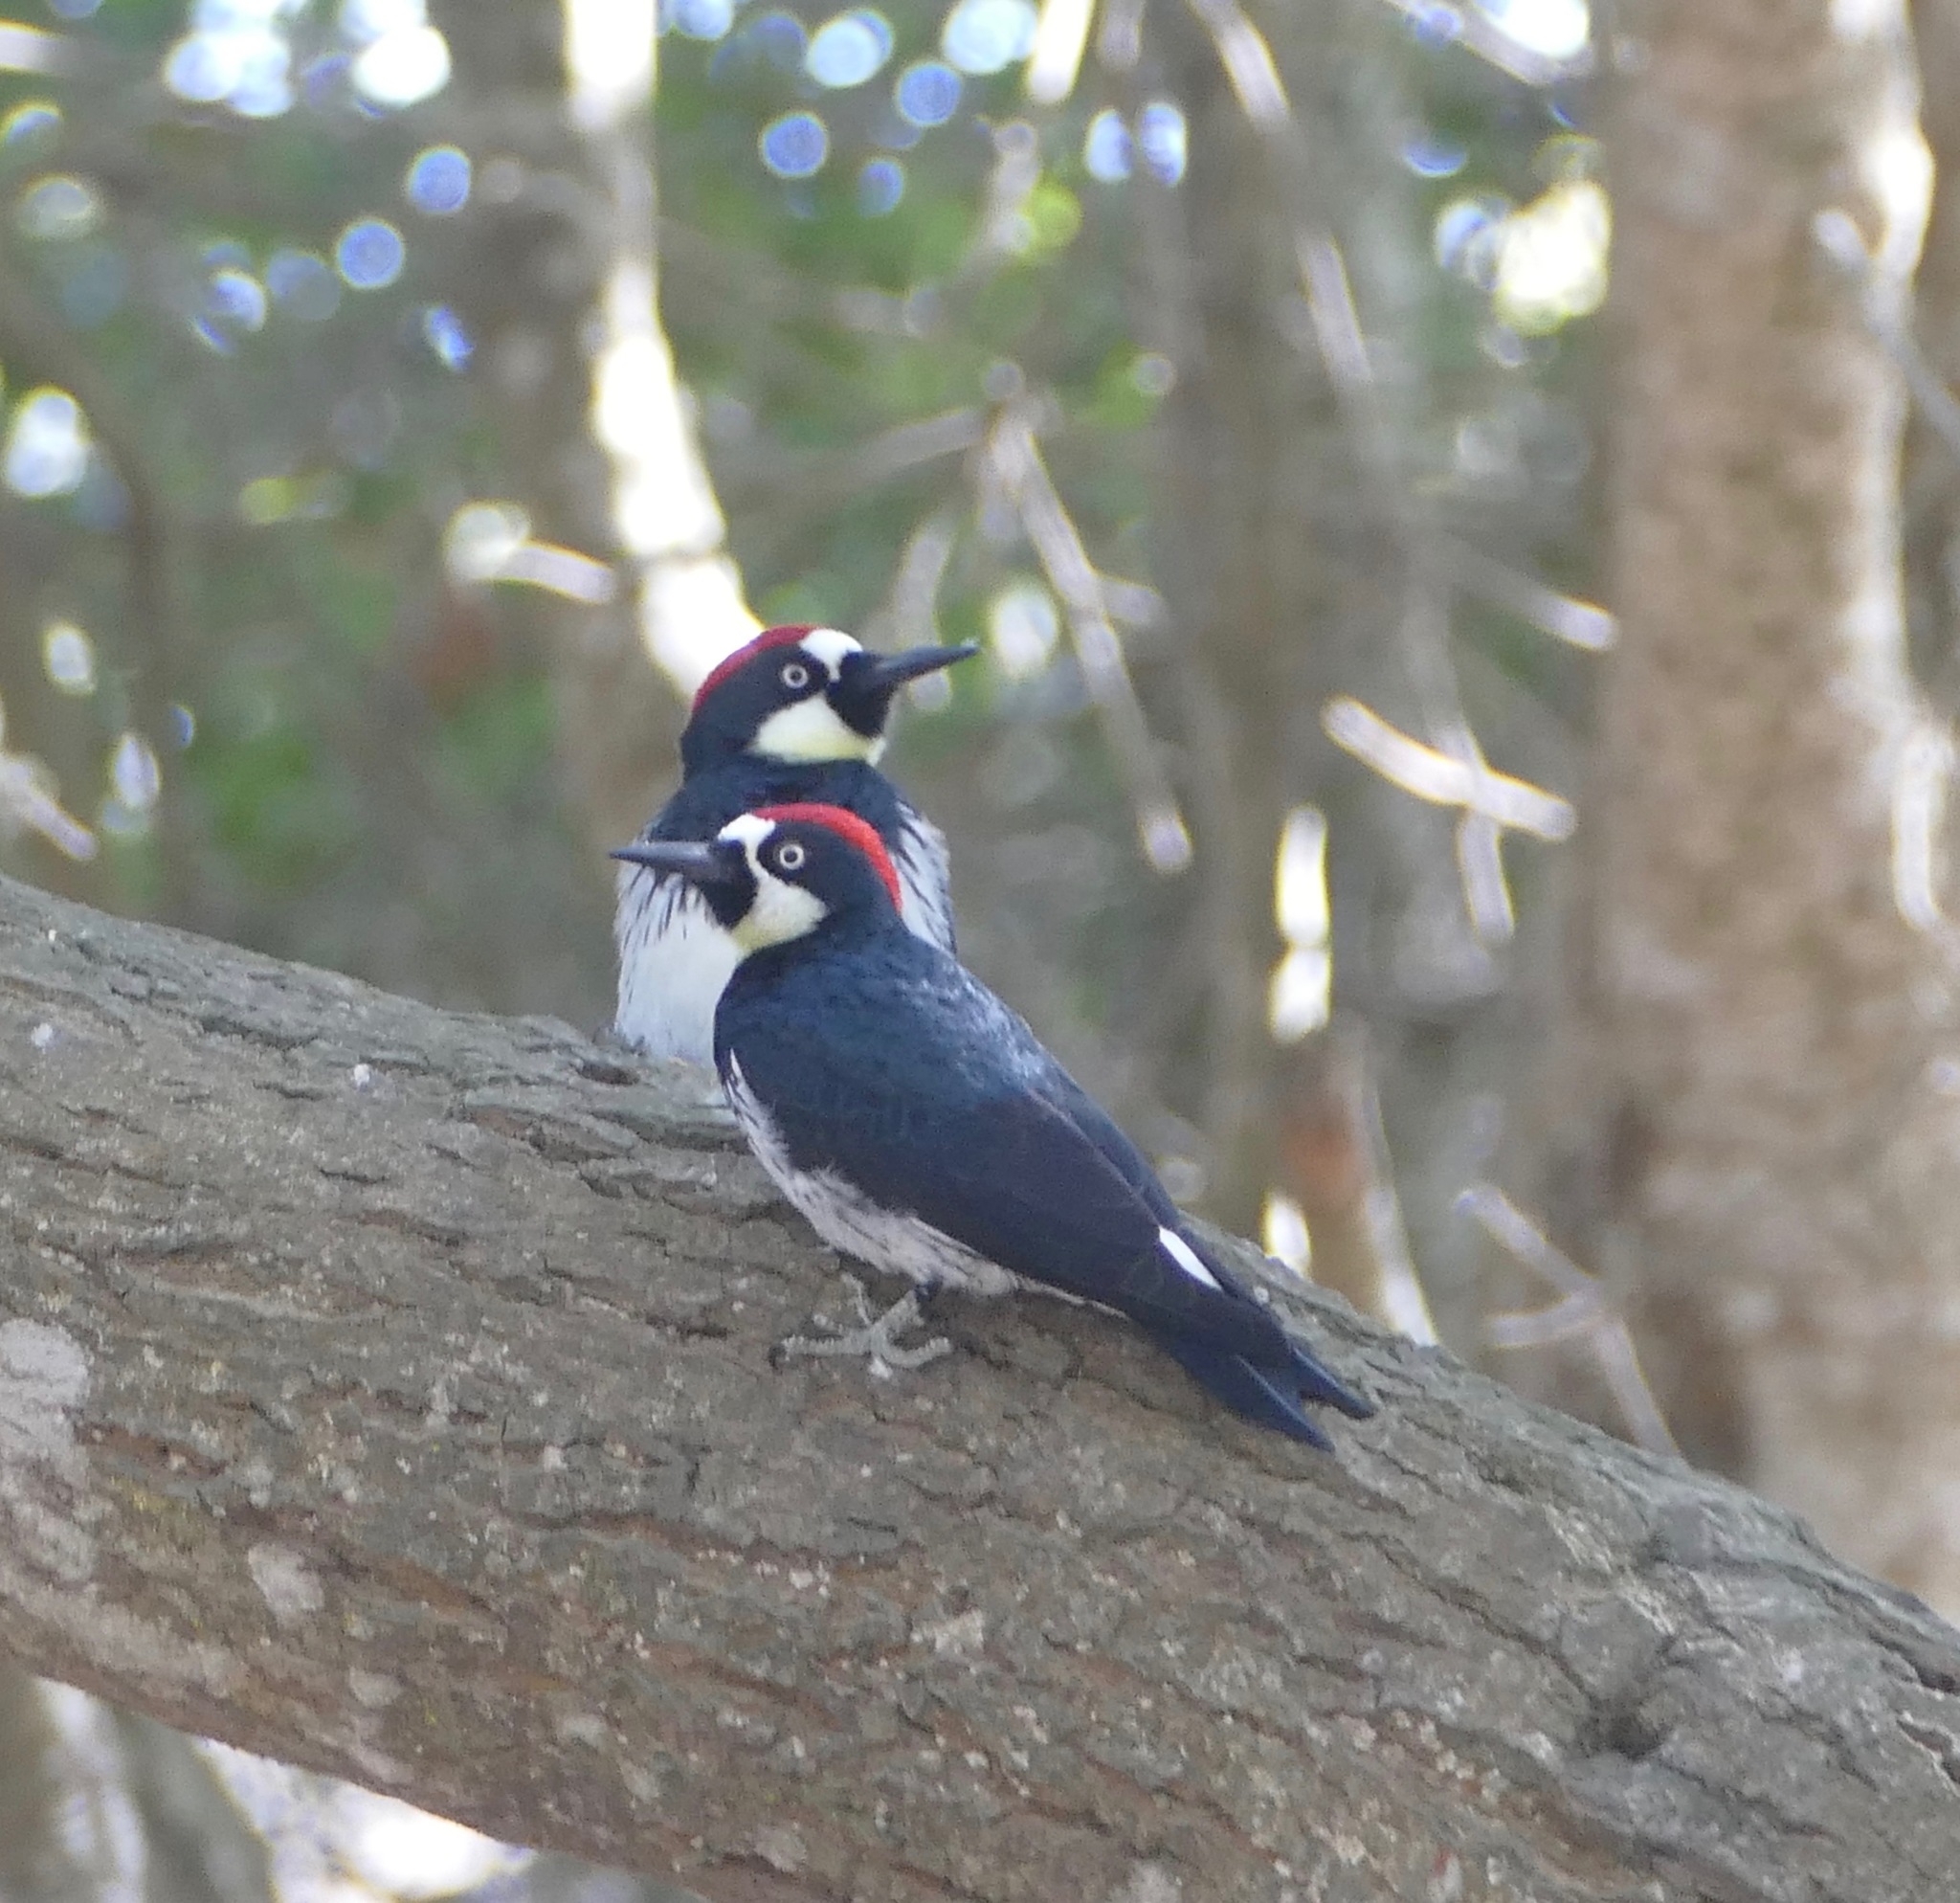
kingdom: Animalia
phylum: Chordata
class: Aves
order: Piciformes
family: Picidae
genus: Melanerpes
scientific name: Melanerpes formicivorus
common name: Acorn woodpecker
